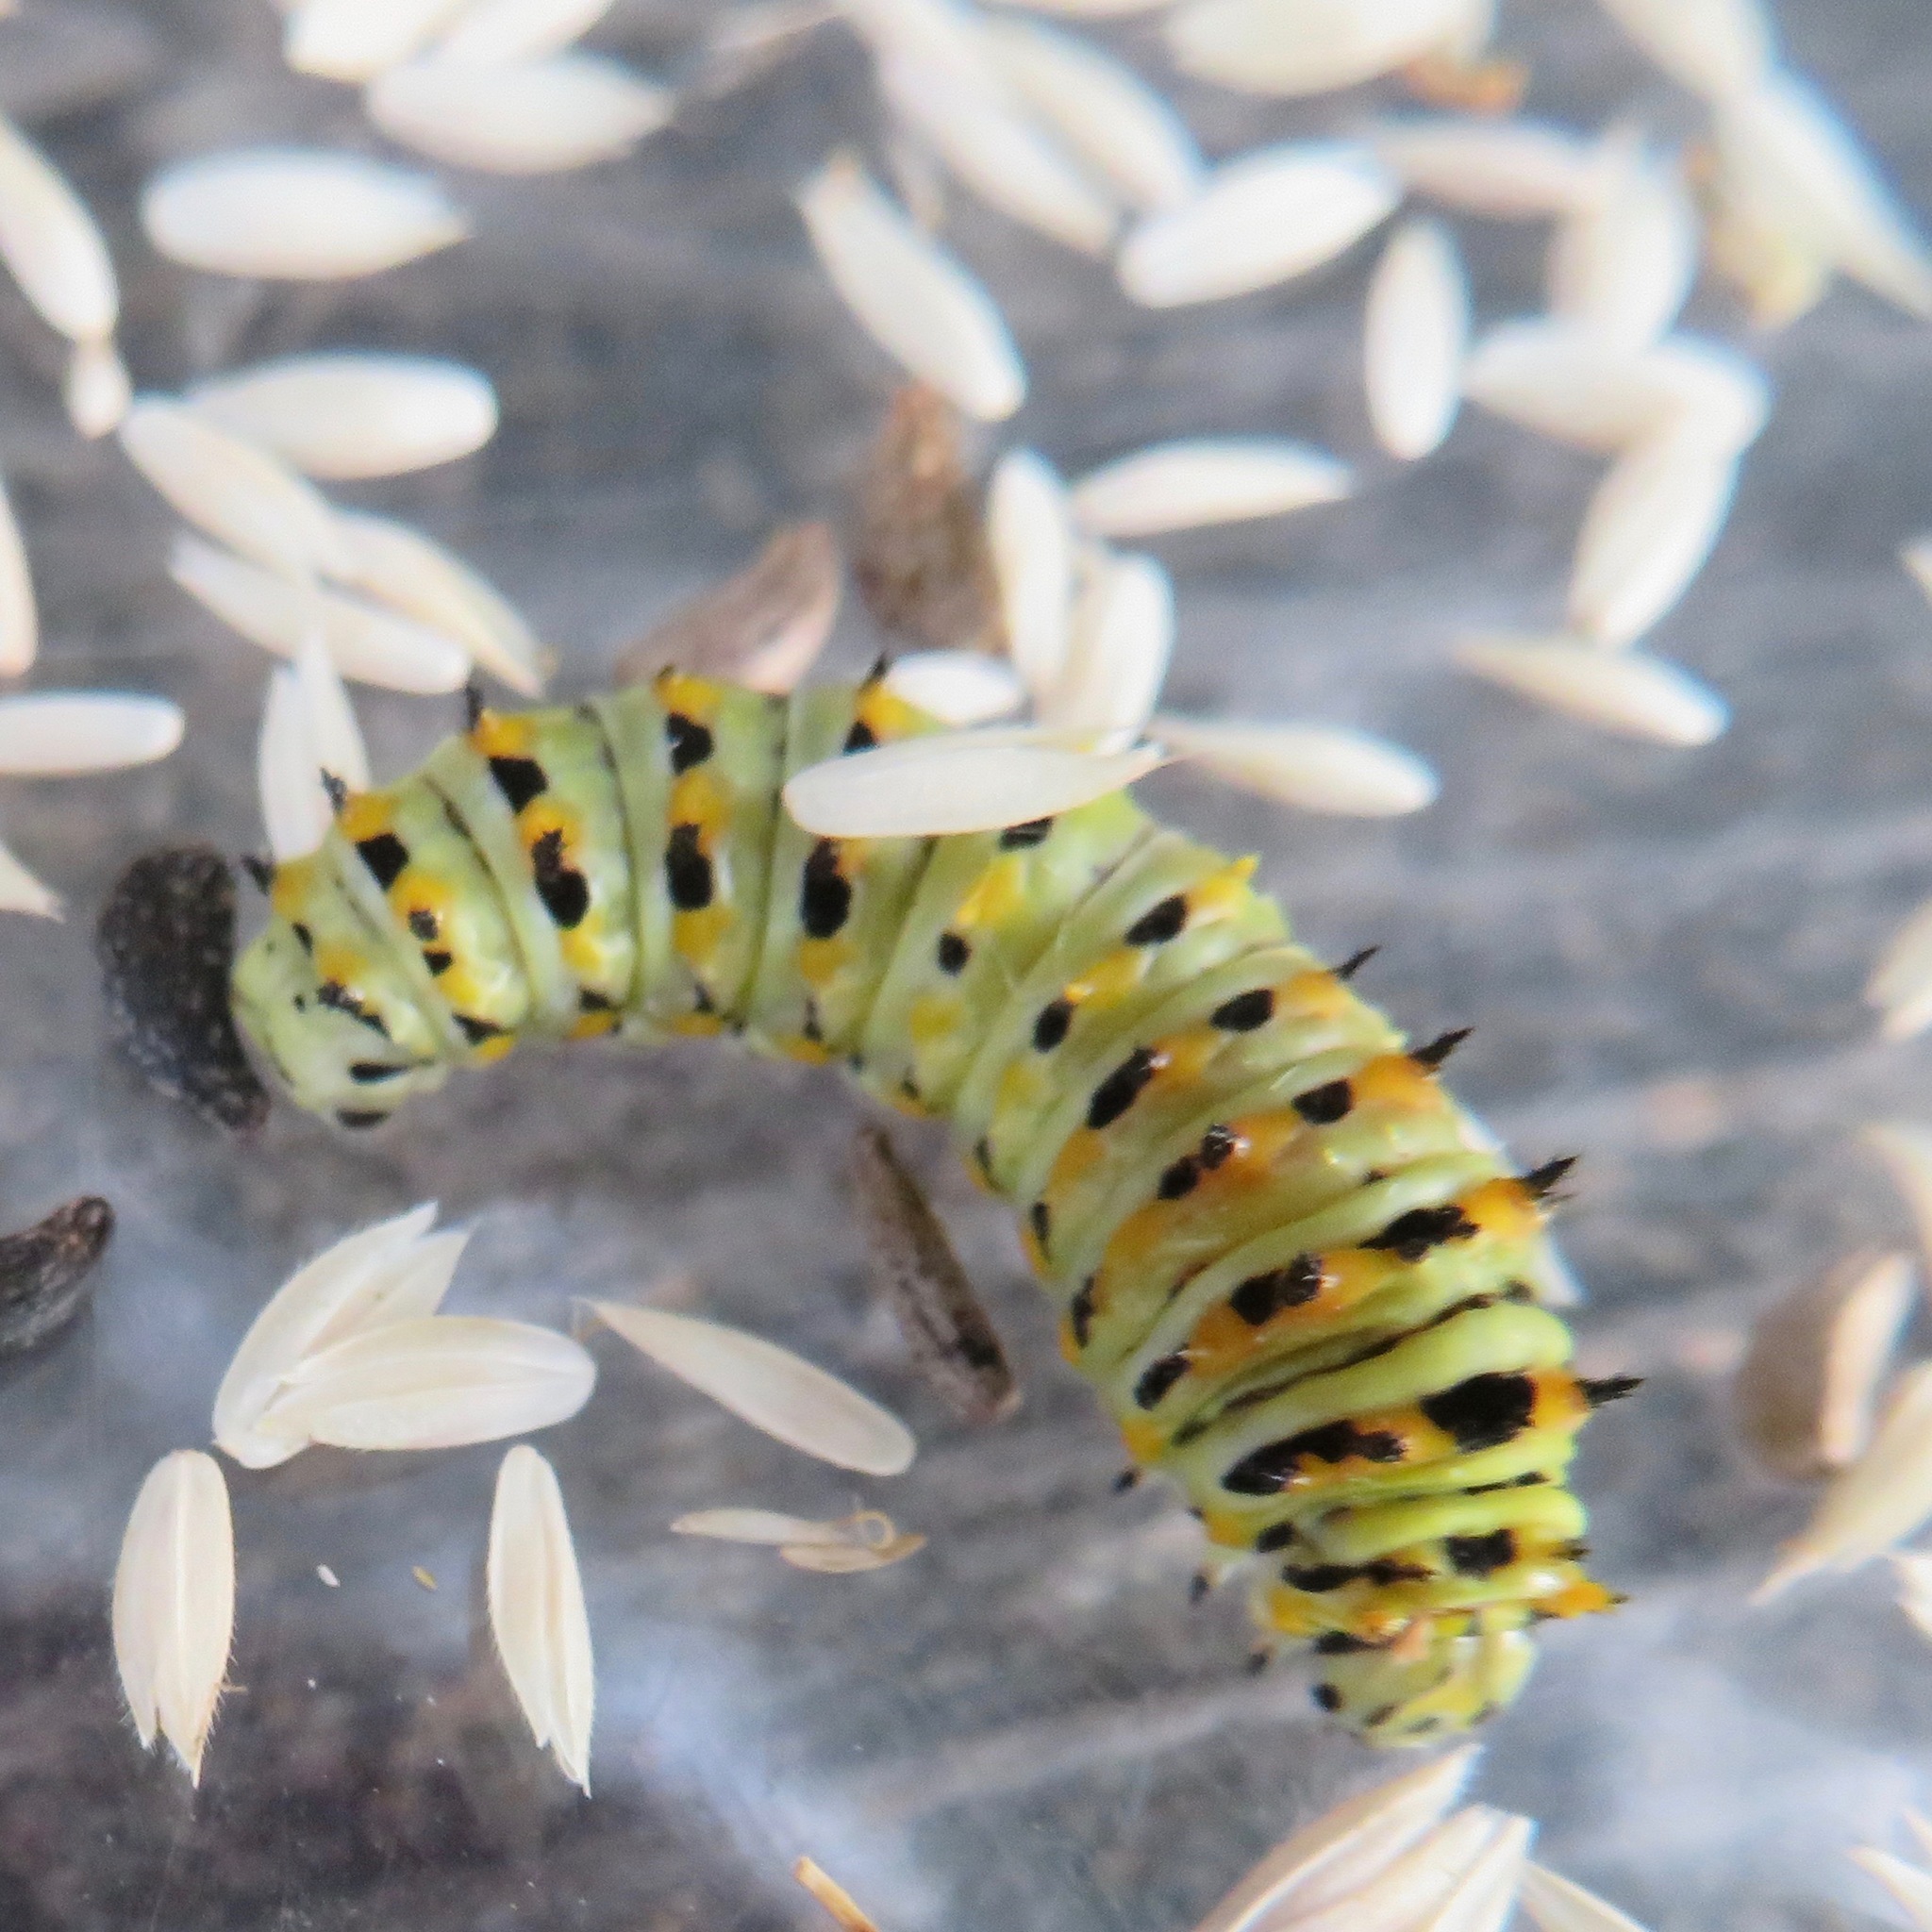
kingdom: Animalia
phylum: Arthropoda
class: Insecta
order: Lepidoptera
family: Papilionidae
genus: Papilio
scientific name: Papilio zelicaon
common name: Anise swallowtail
